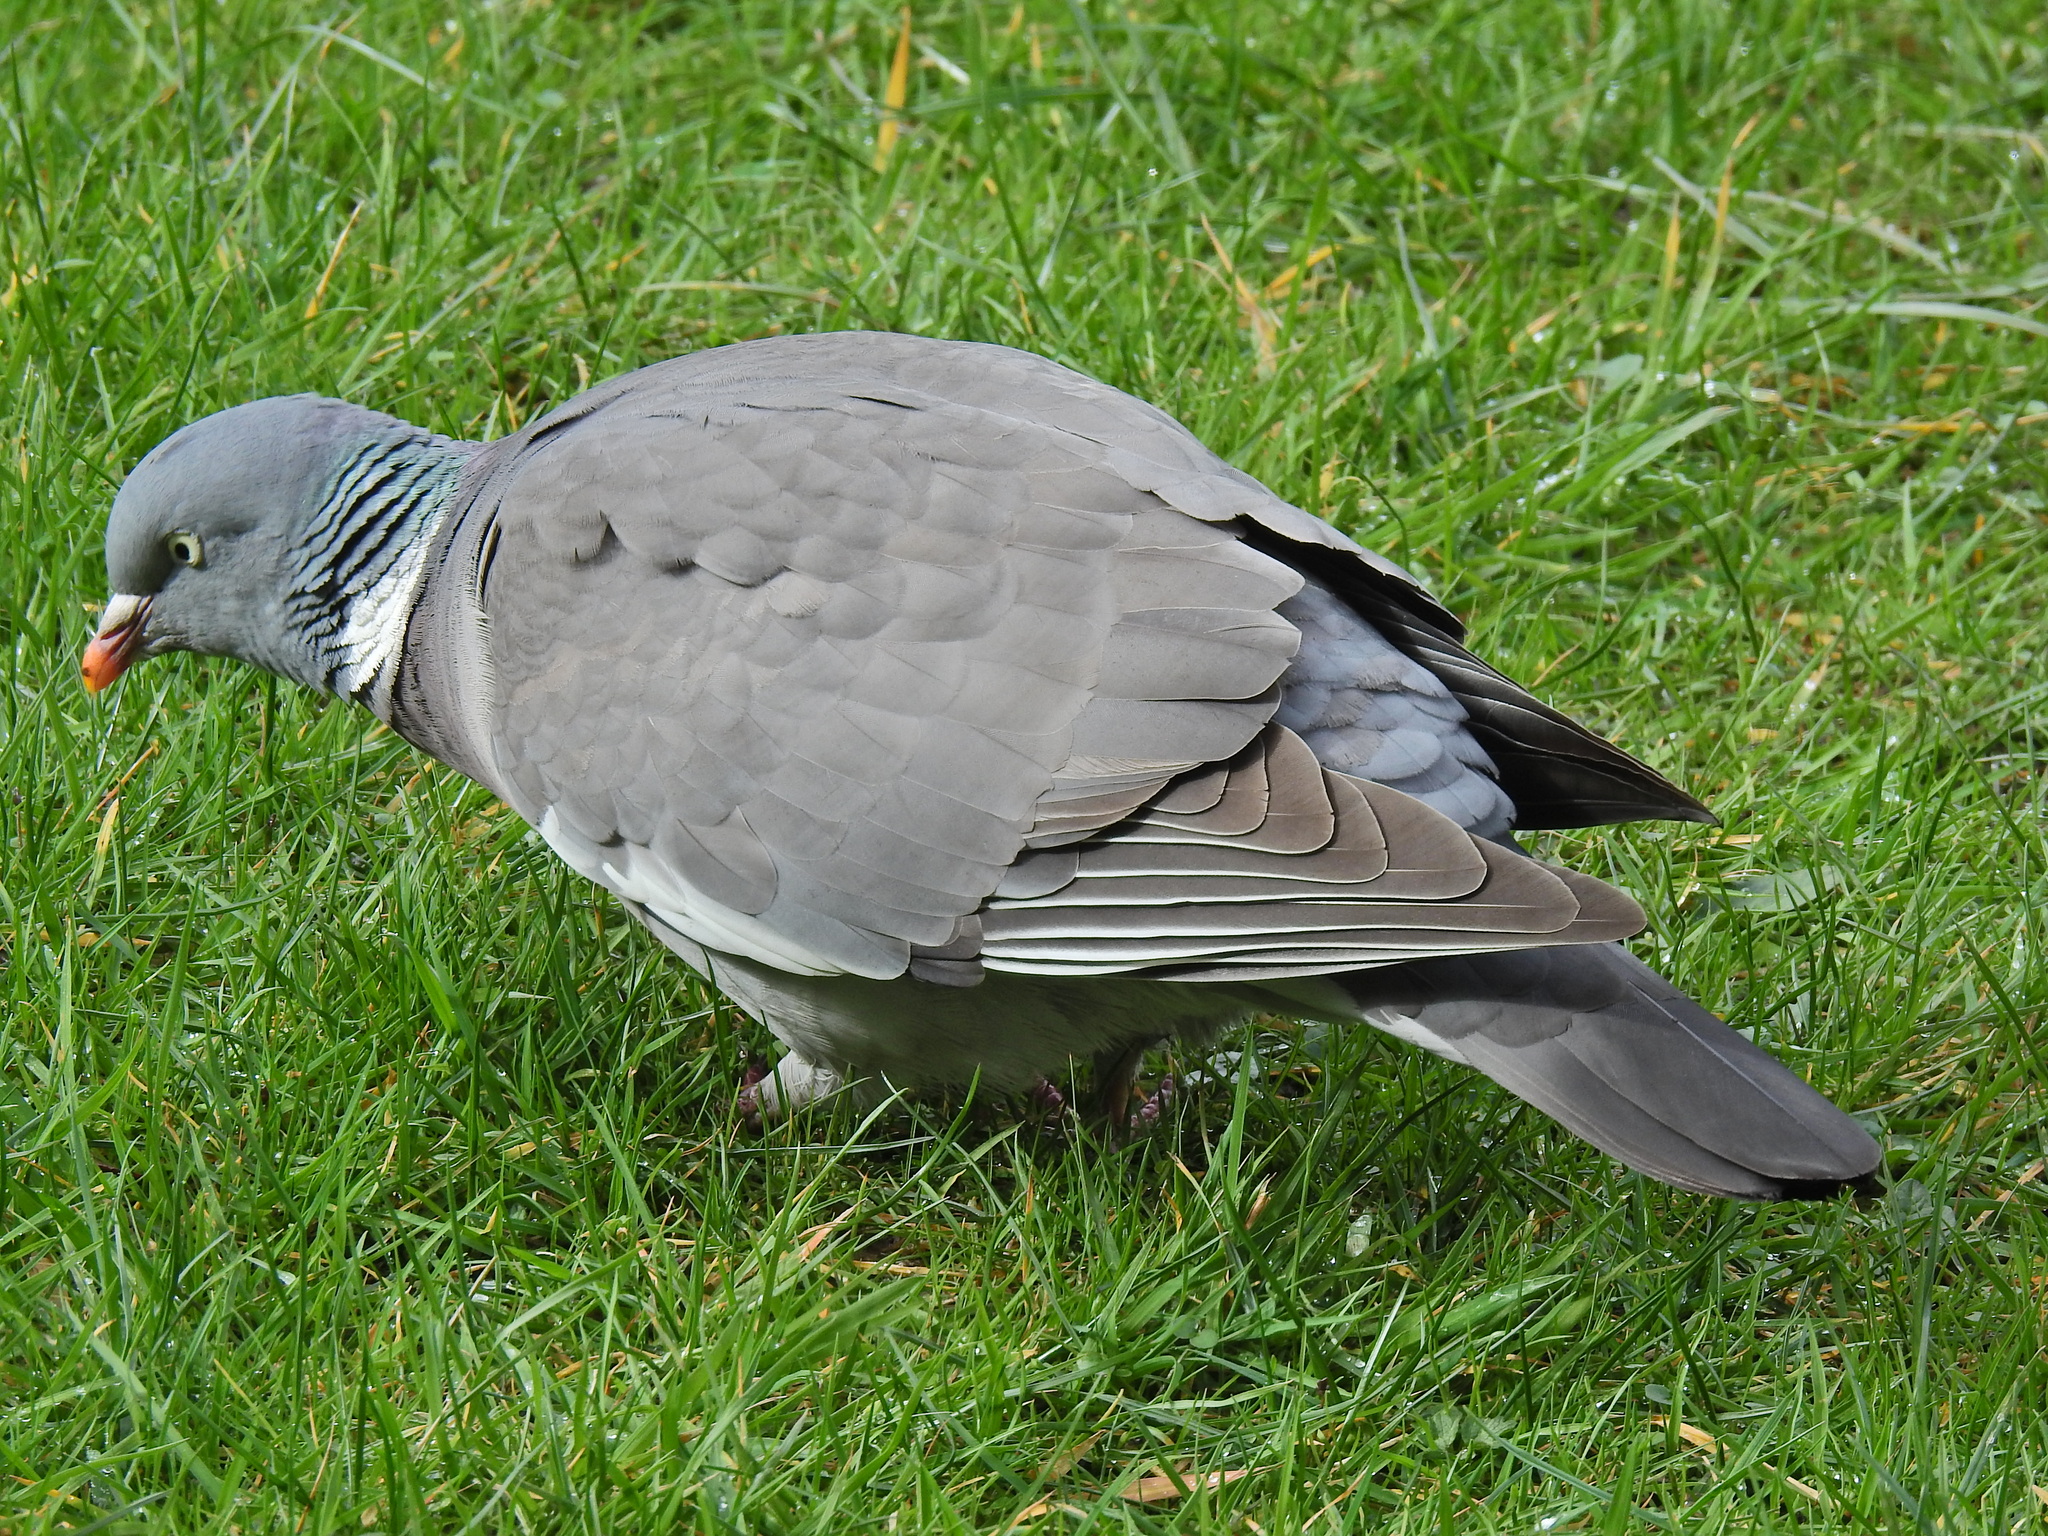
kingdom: Animalia
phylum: Chordata
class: Aves
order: Columbiformes
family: Columbidae
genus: Columba
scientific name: Columba palumbus
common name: Common wood pigeon
